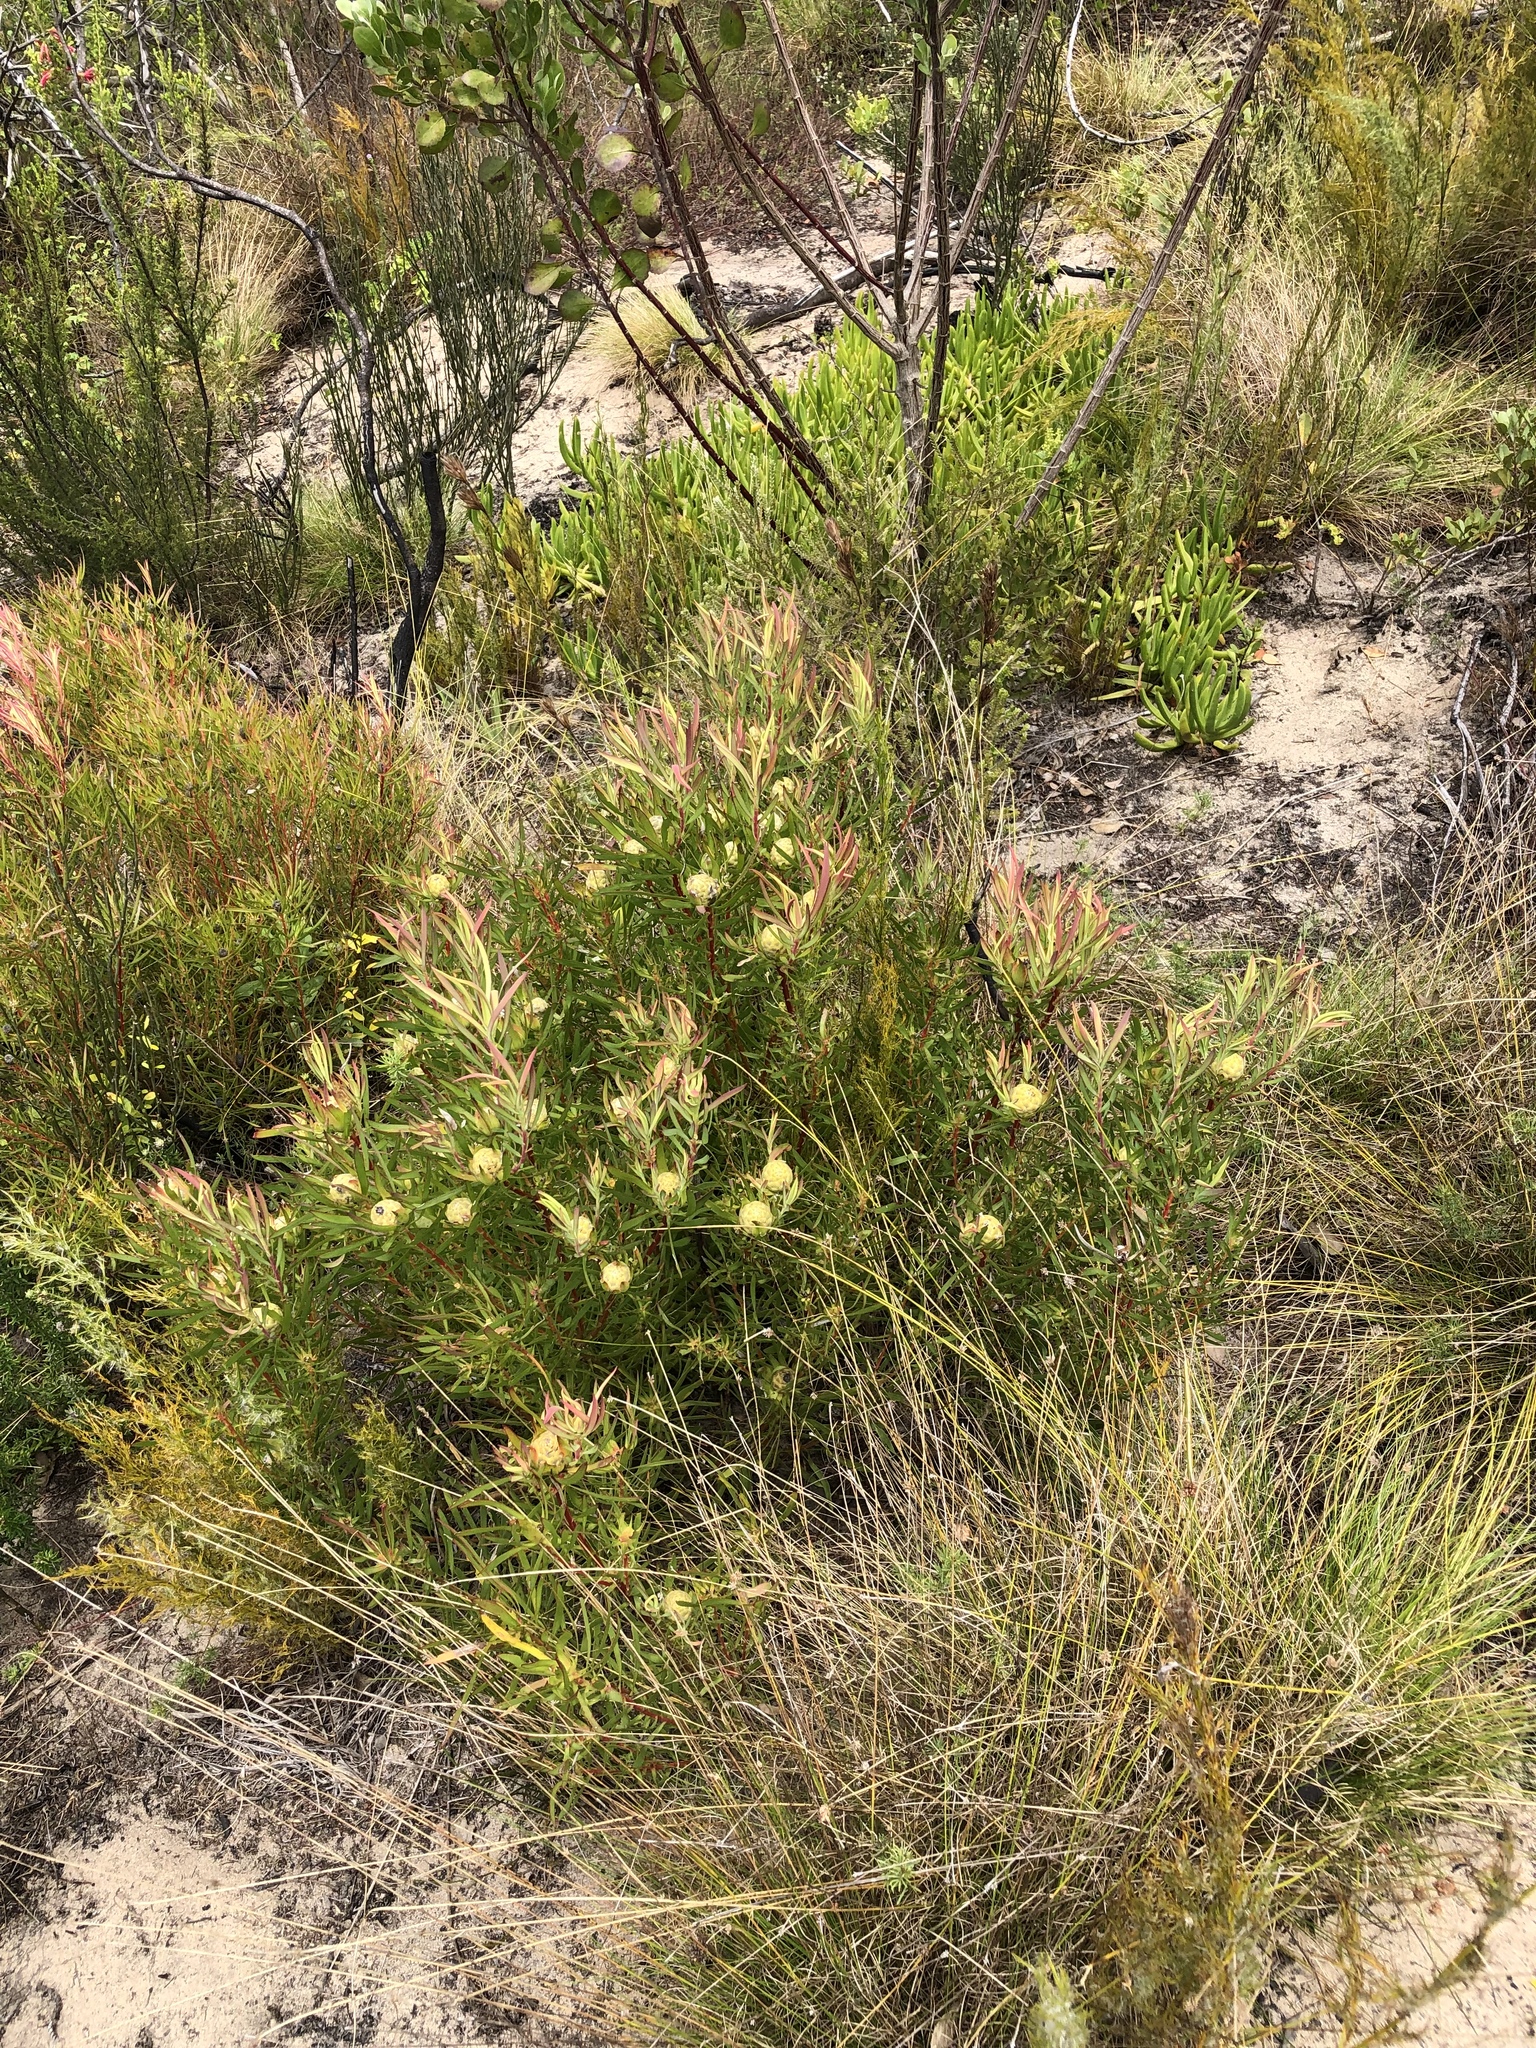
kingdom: Plantae
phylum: Tracheophyta
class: Magnoliopsida
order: Proteales
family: Proteaceae
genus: Leucadendron
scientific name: Leucadendron salignum
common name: Common sunshine conebush
